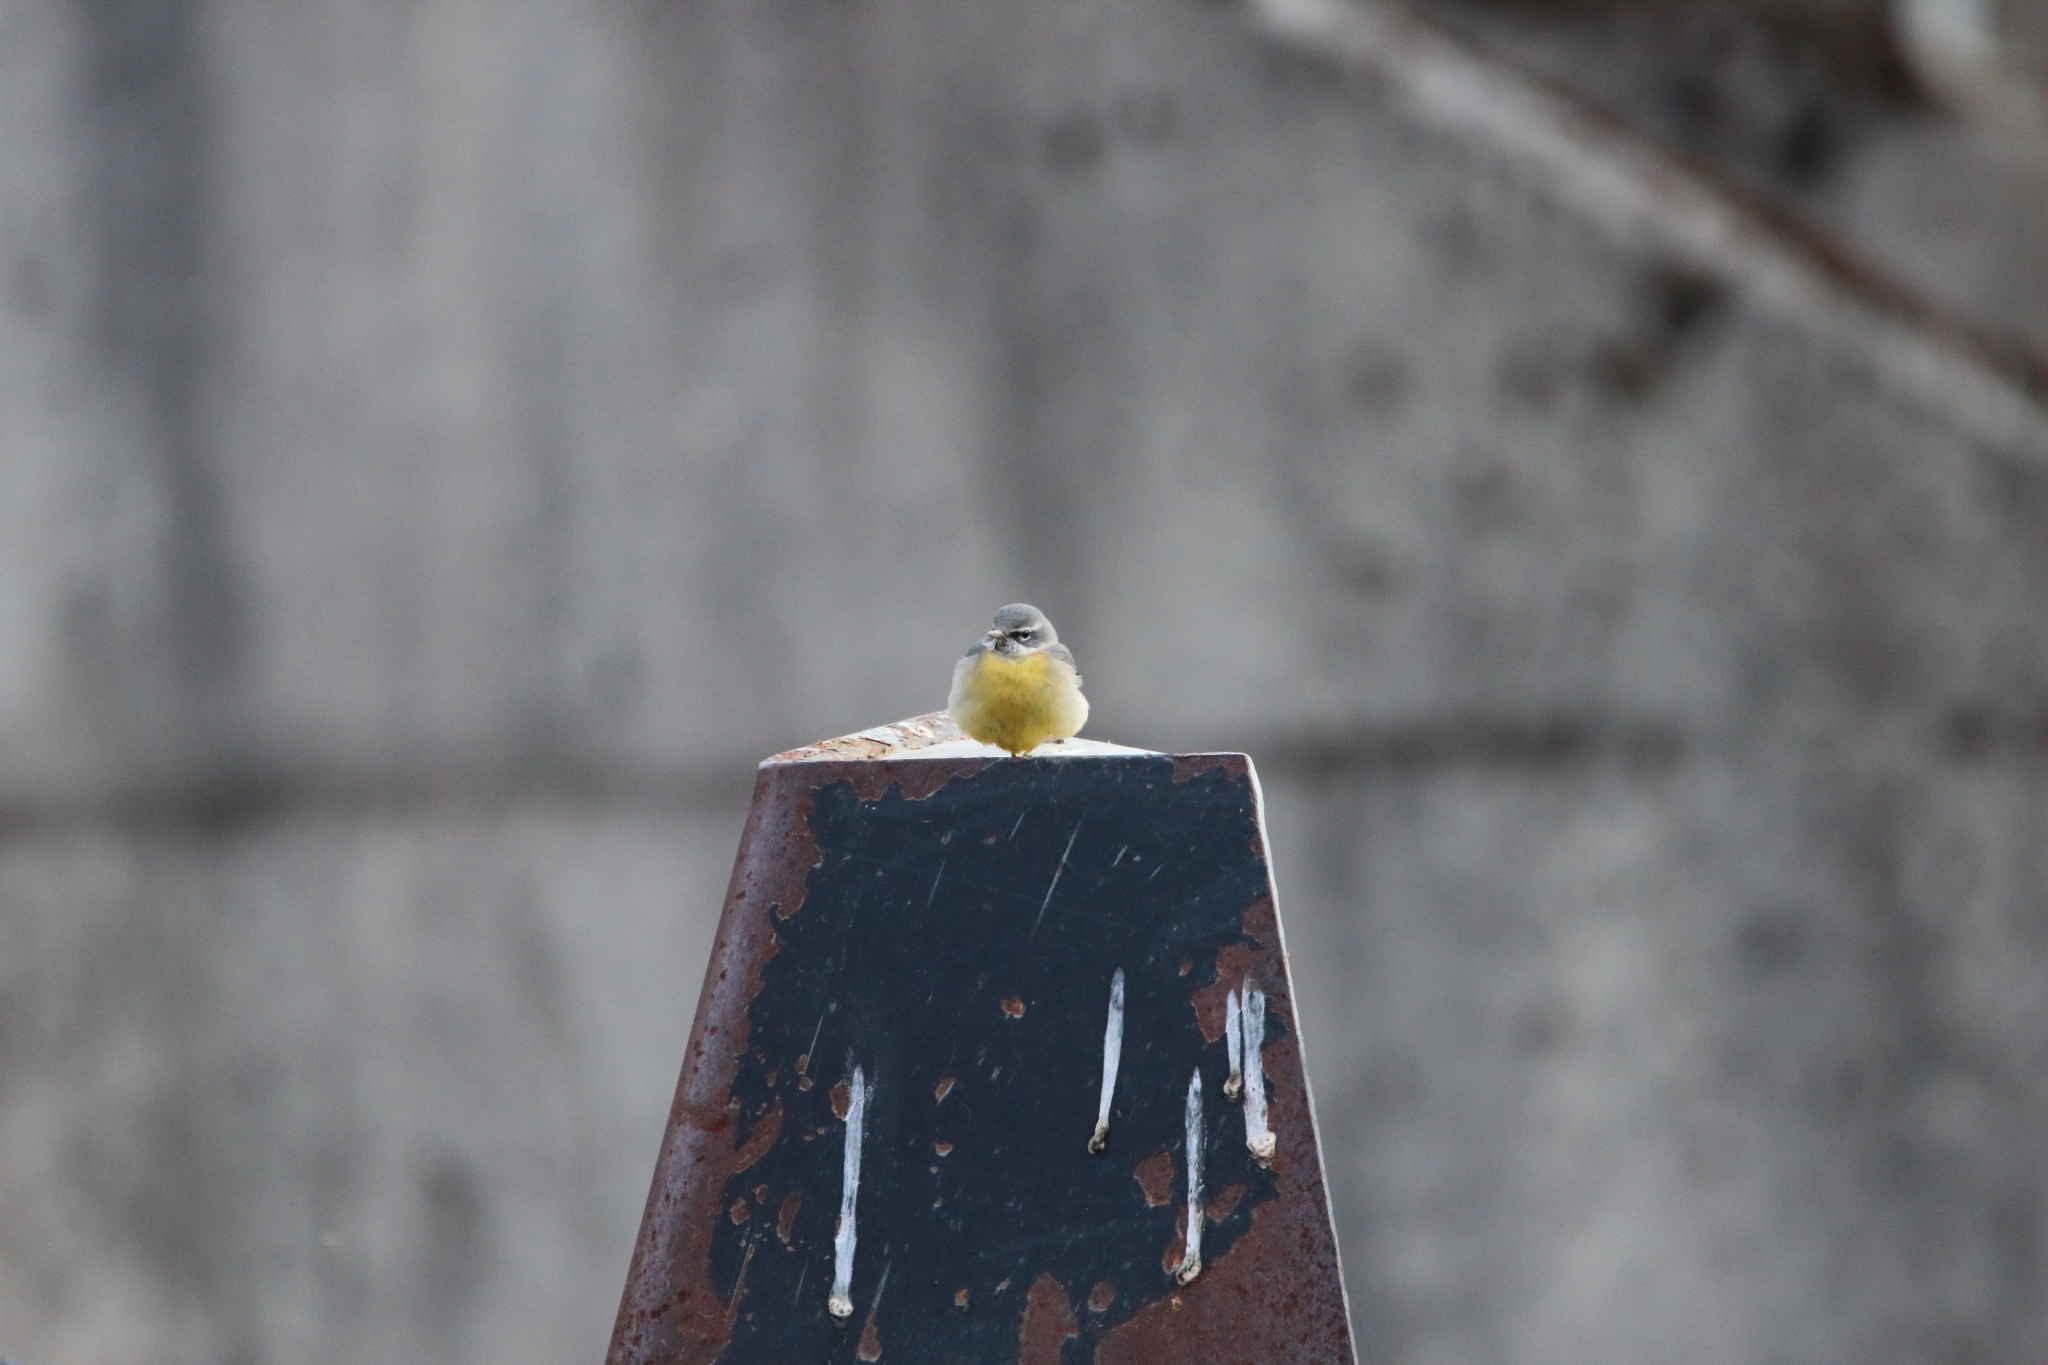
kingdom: Animalia
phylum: Chordata
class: Aves
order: Passeriformes
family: Motacillidae
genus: Motacilla
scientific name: Motacilla cinerea
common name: Grey wagtail
